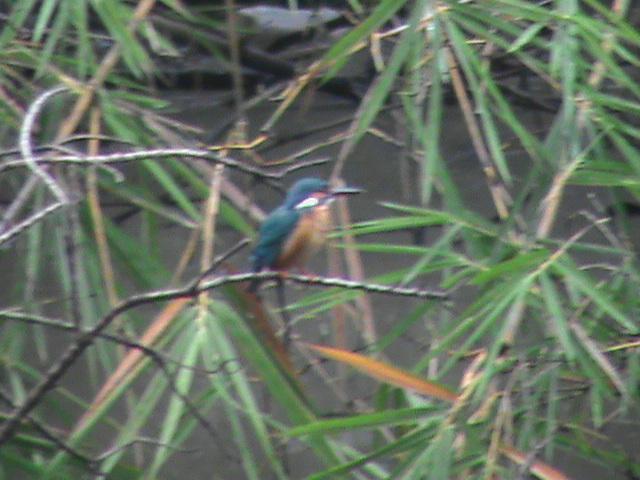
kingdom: Animalia
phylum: Chordata
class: Aves
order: Coraciiformes
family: Alcedinidae
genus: Alcedo
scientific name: Alcedo atthis
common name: Common kingfisher
